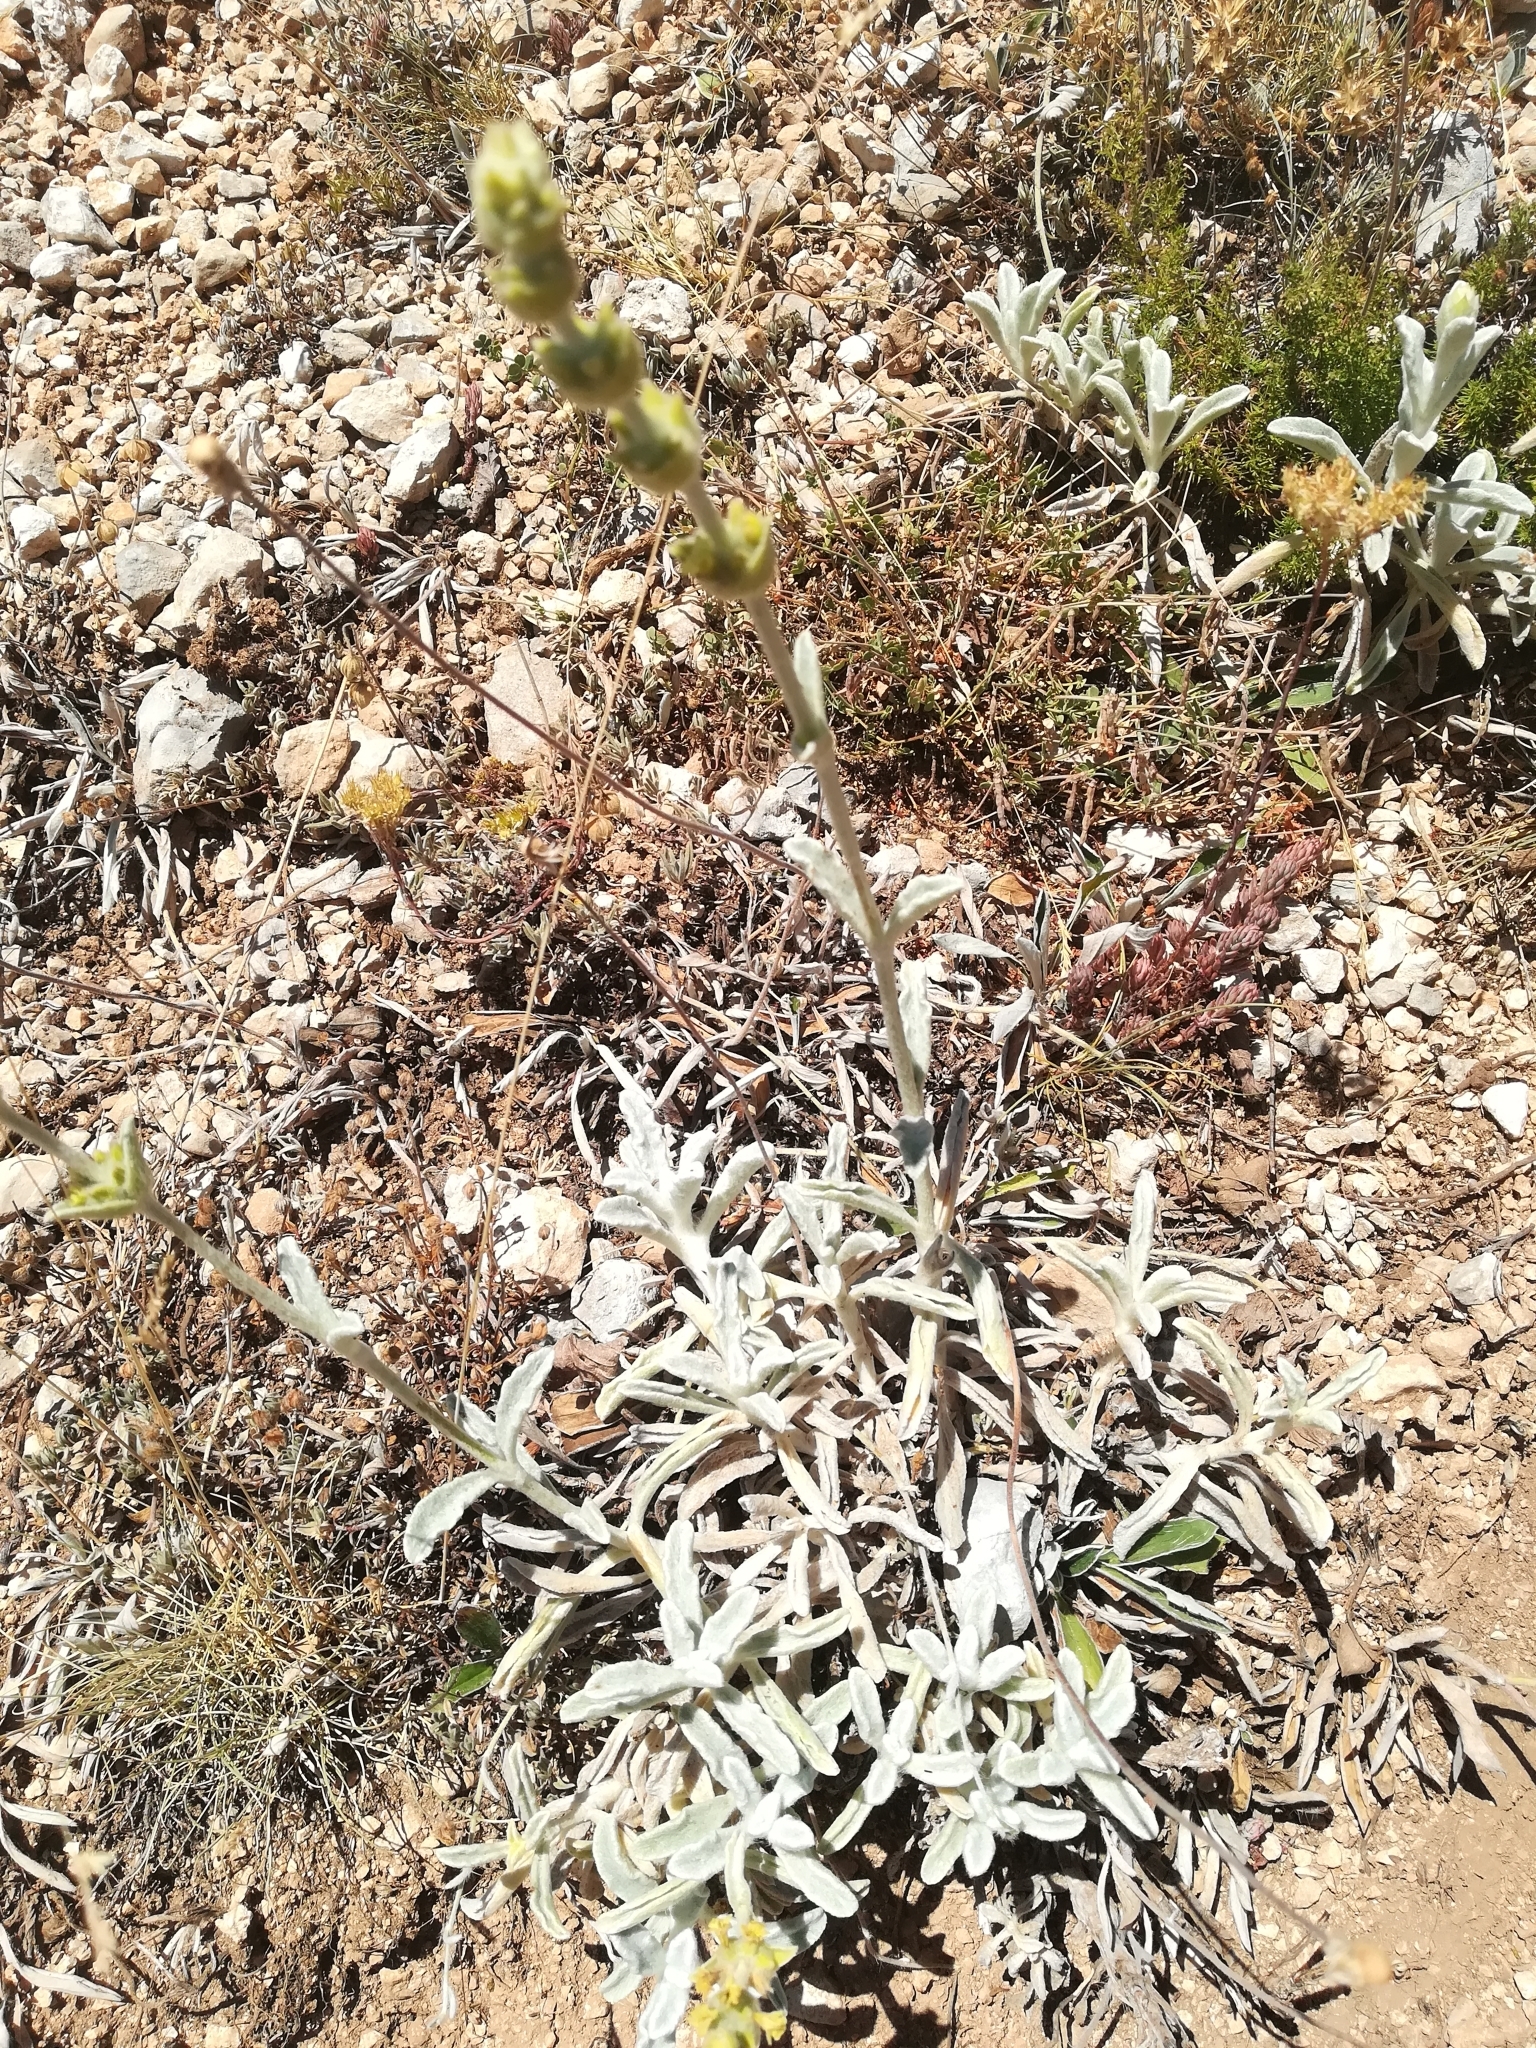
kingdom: Plantae
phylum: Tracheophyta
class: Magnoliopsida
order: Lamiales
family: Lamiaceae
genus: Sideritis
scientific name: Sideritis italica
